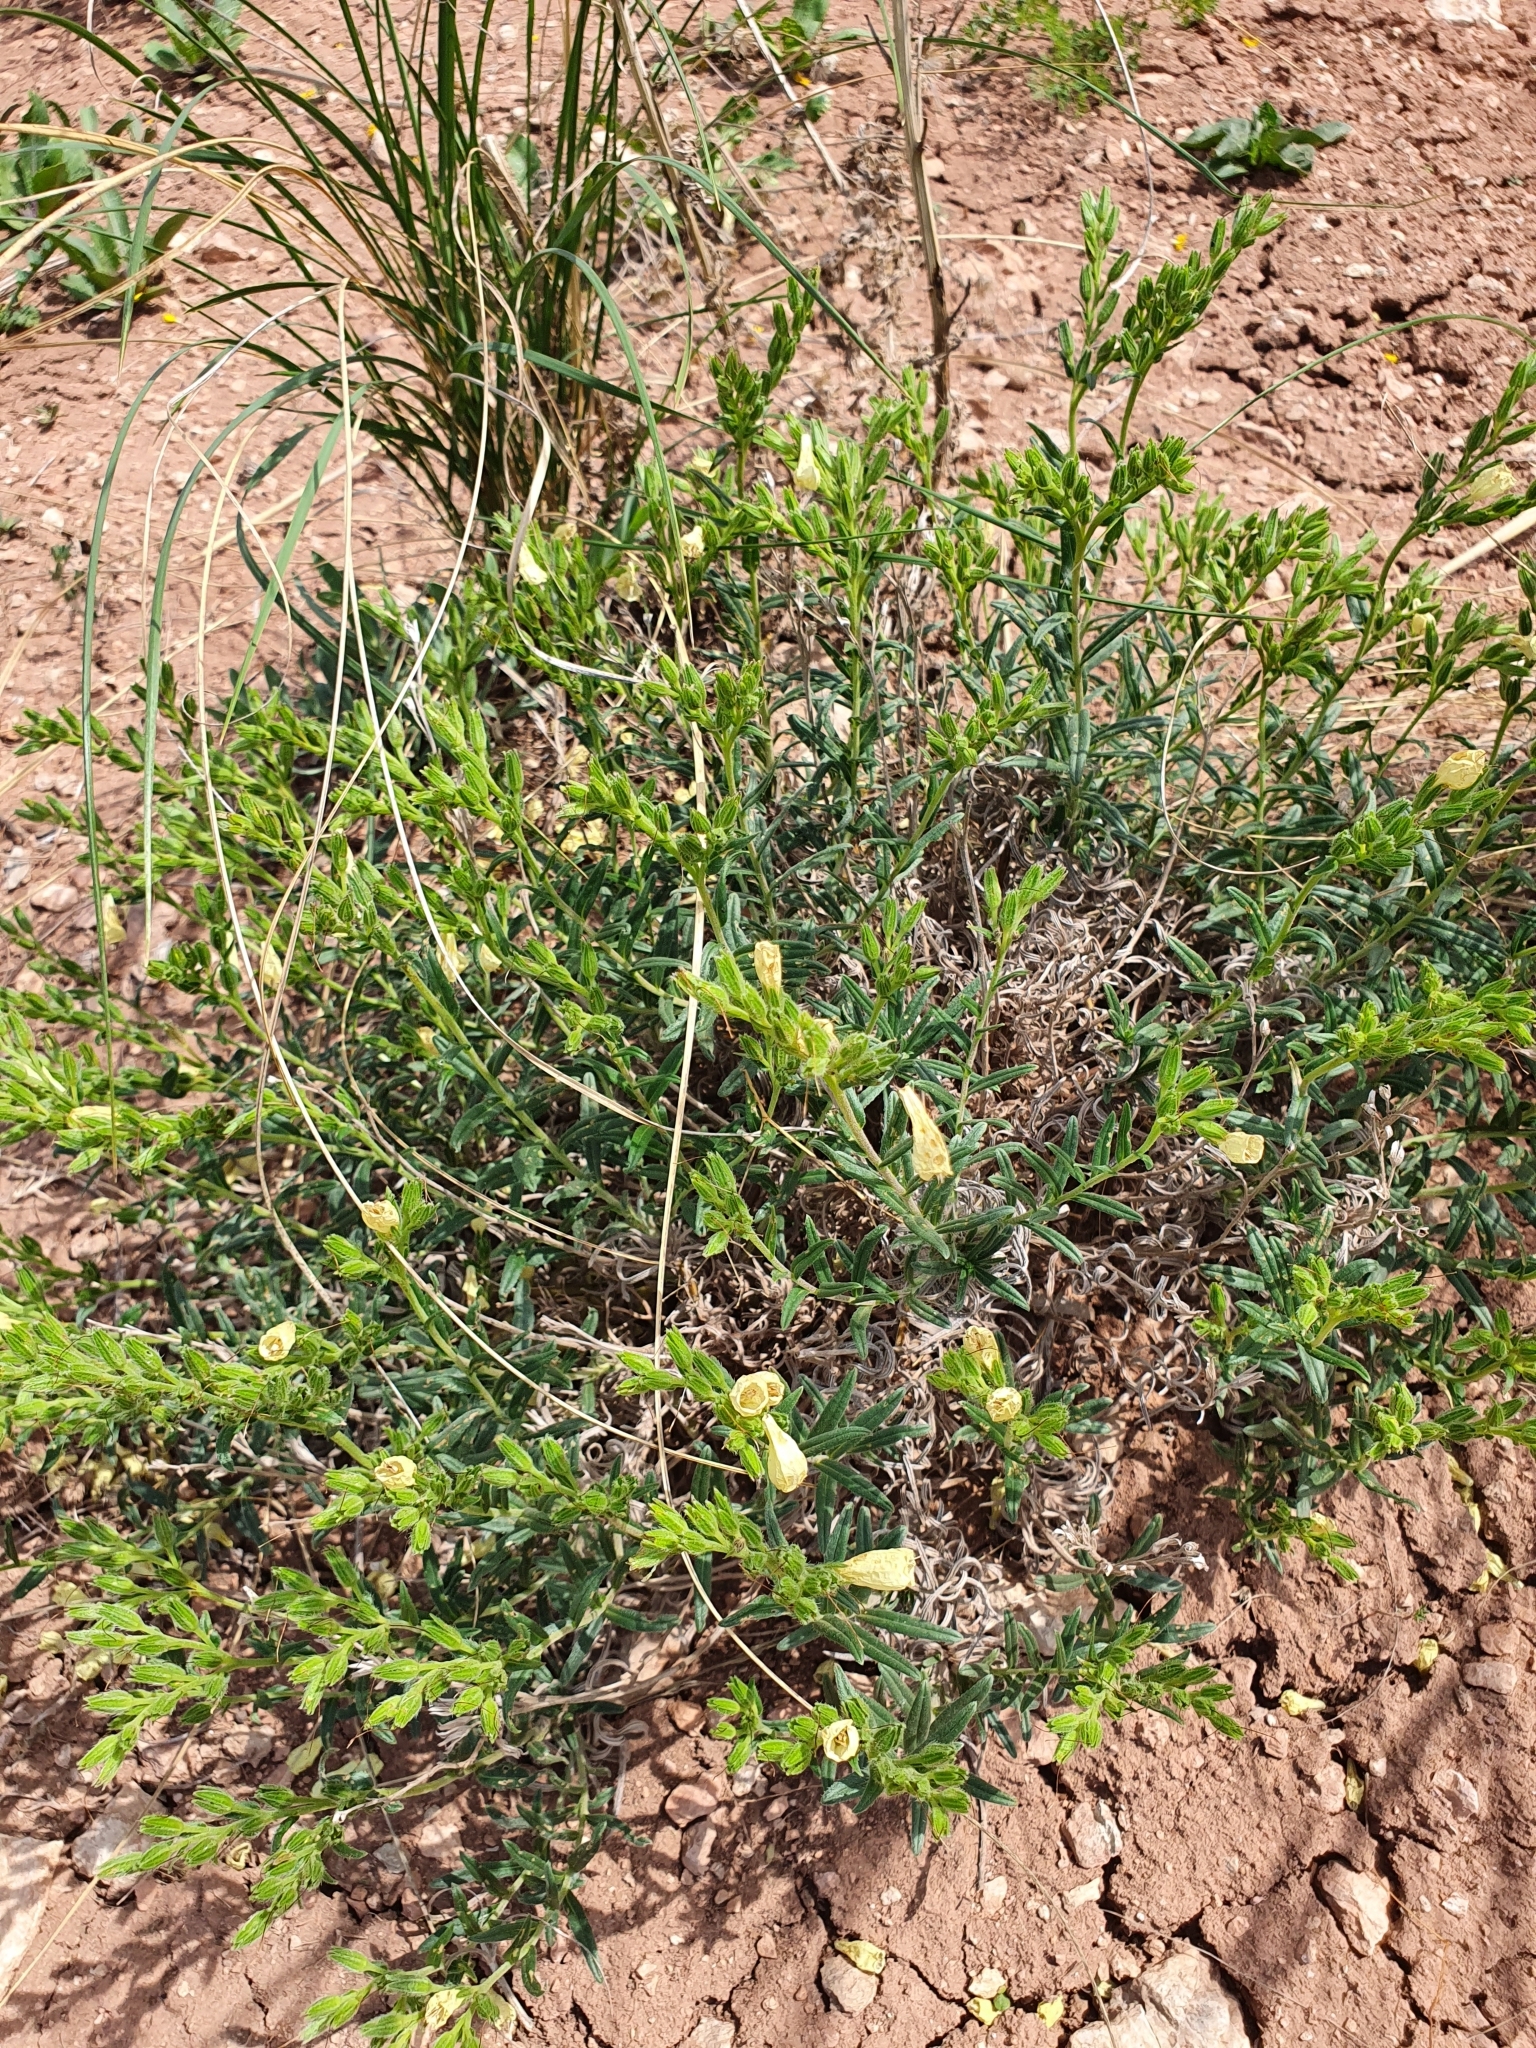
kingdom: Plantae
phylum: Tracheophyta
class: Magnoliopsida
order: Boraginales
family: Boraginaceae
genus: Onosma
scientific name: Onosma simplicissima
